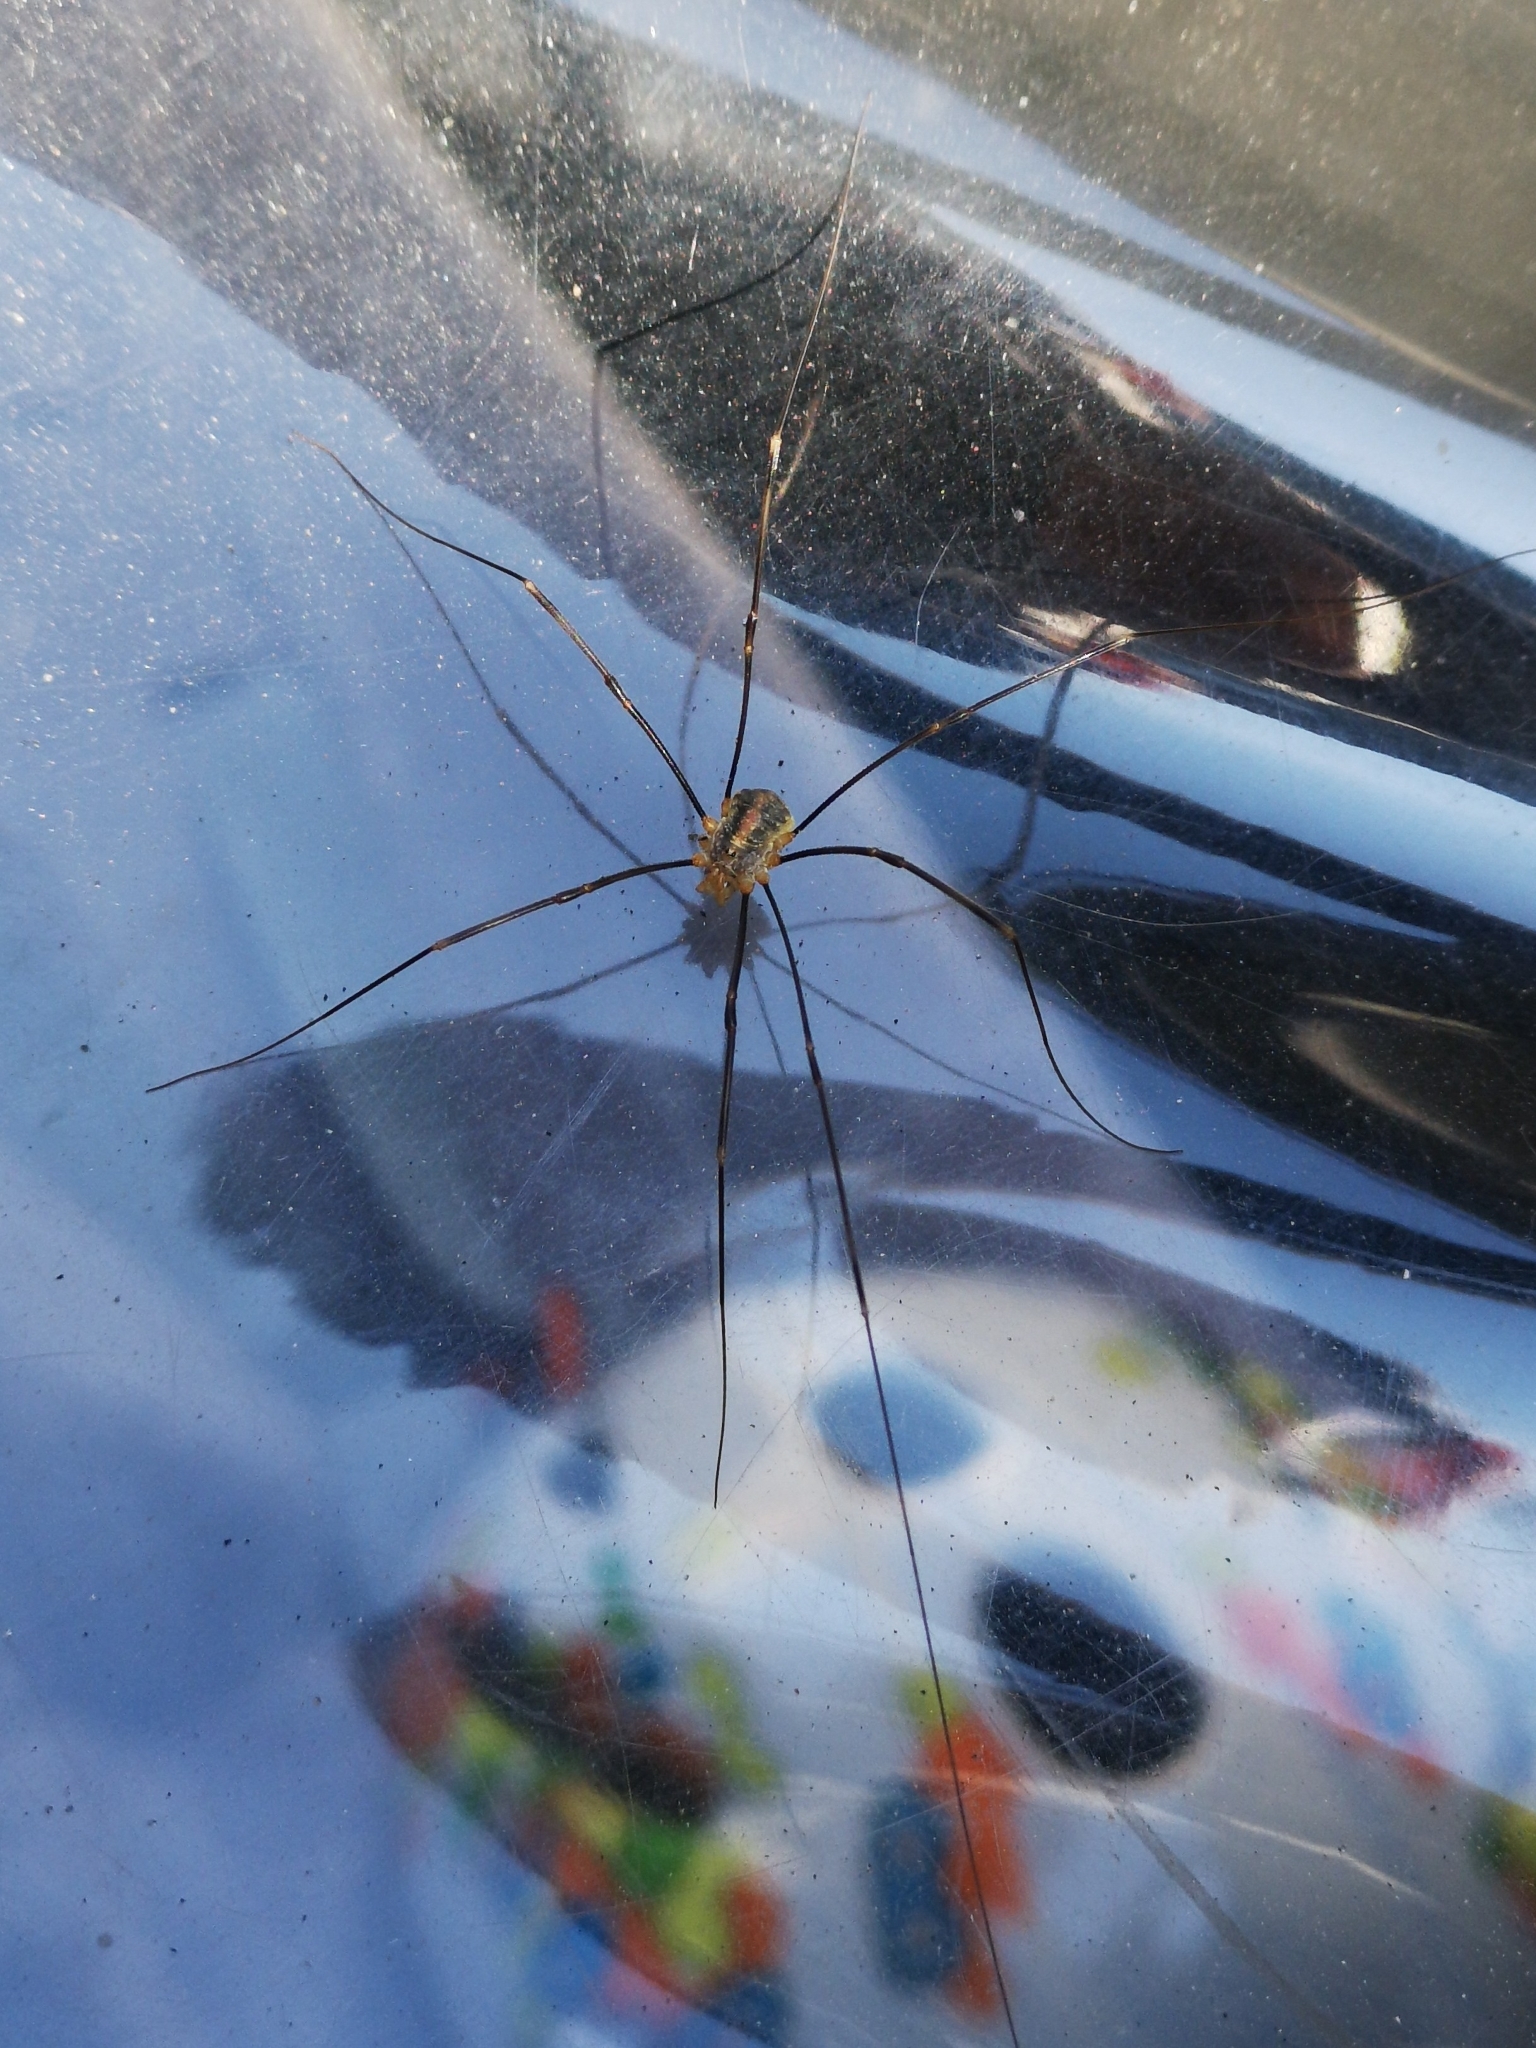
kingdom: Animalia
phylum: Arthropoda
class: Arachnida
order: Opiliones
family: Phalangiidae
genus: Opilio
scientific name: Opilio canestrinii
